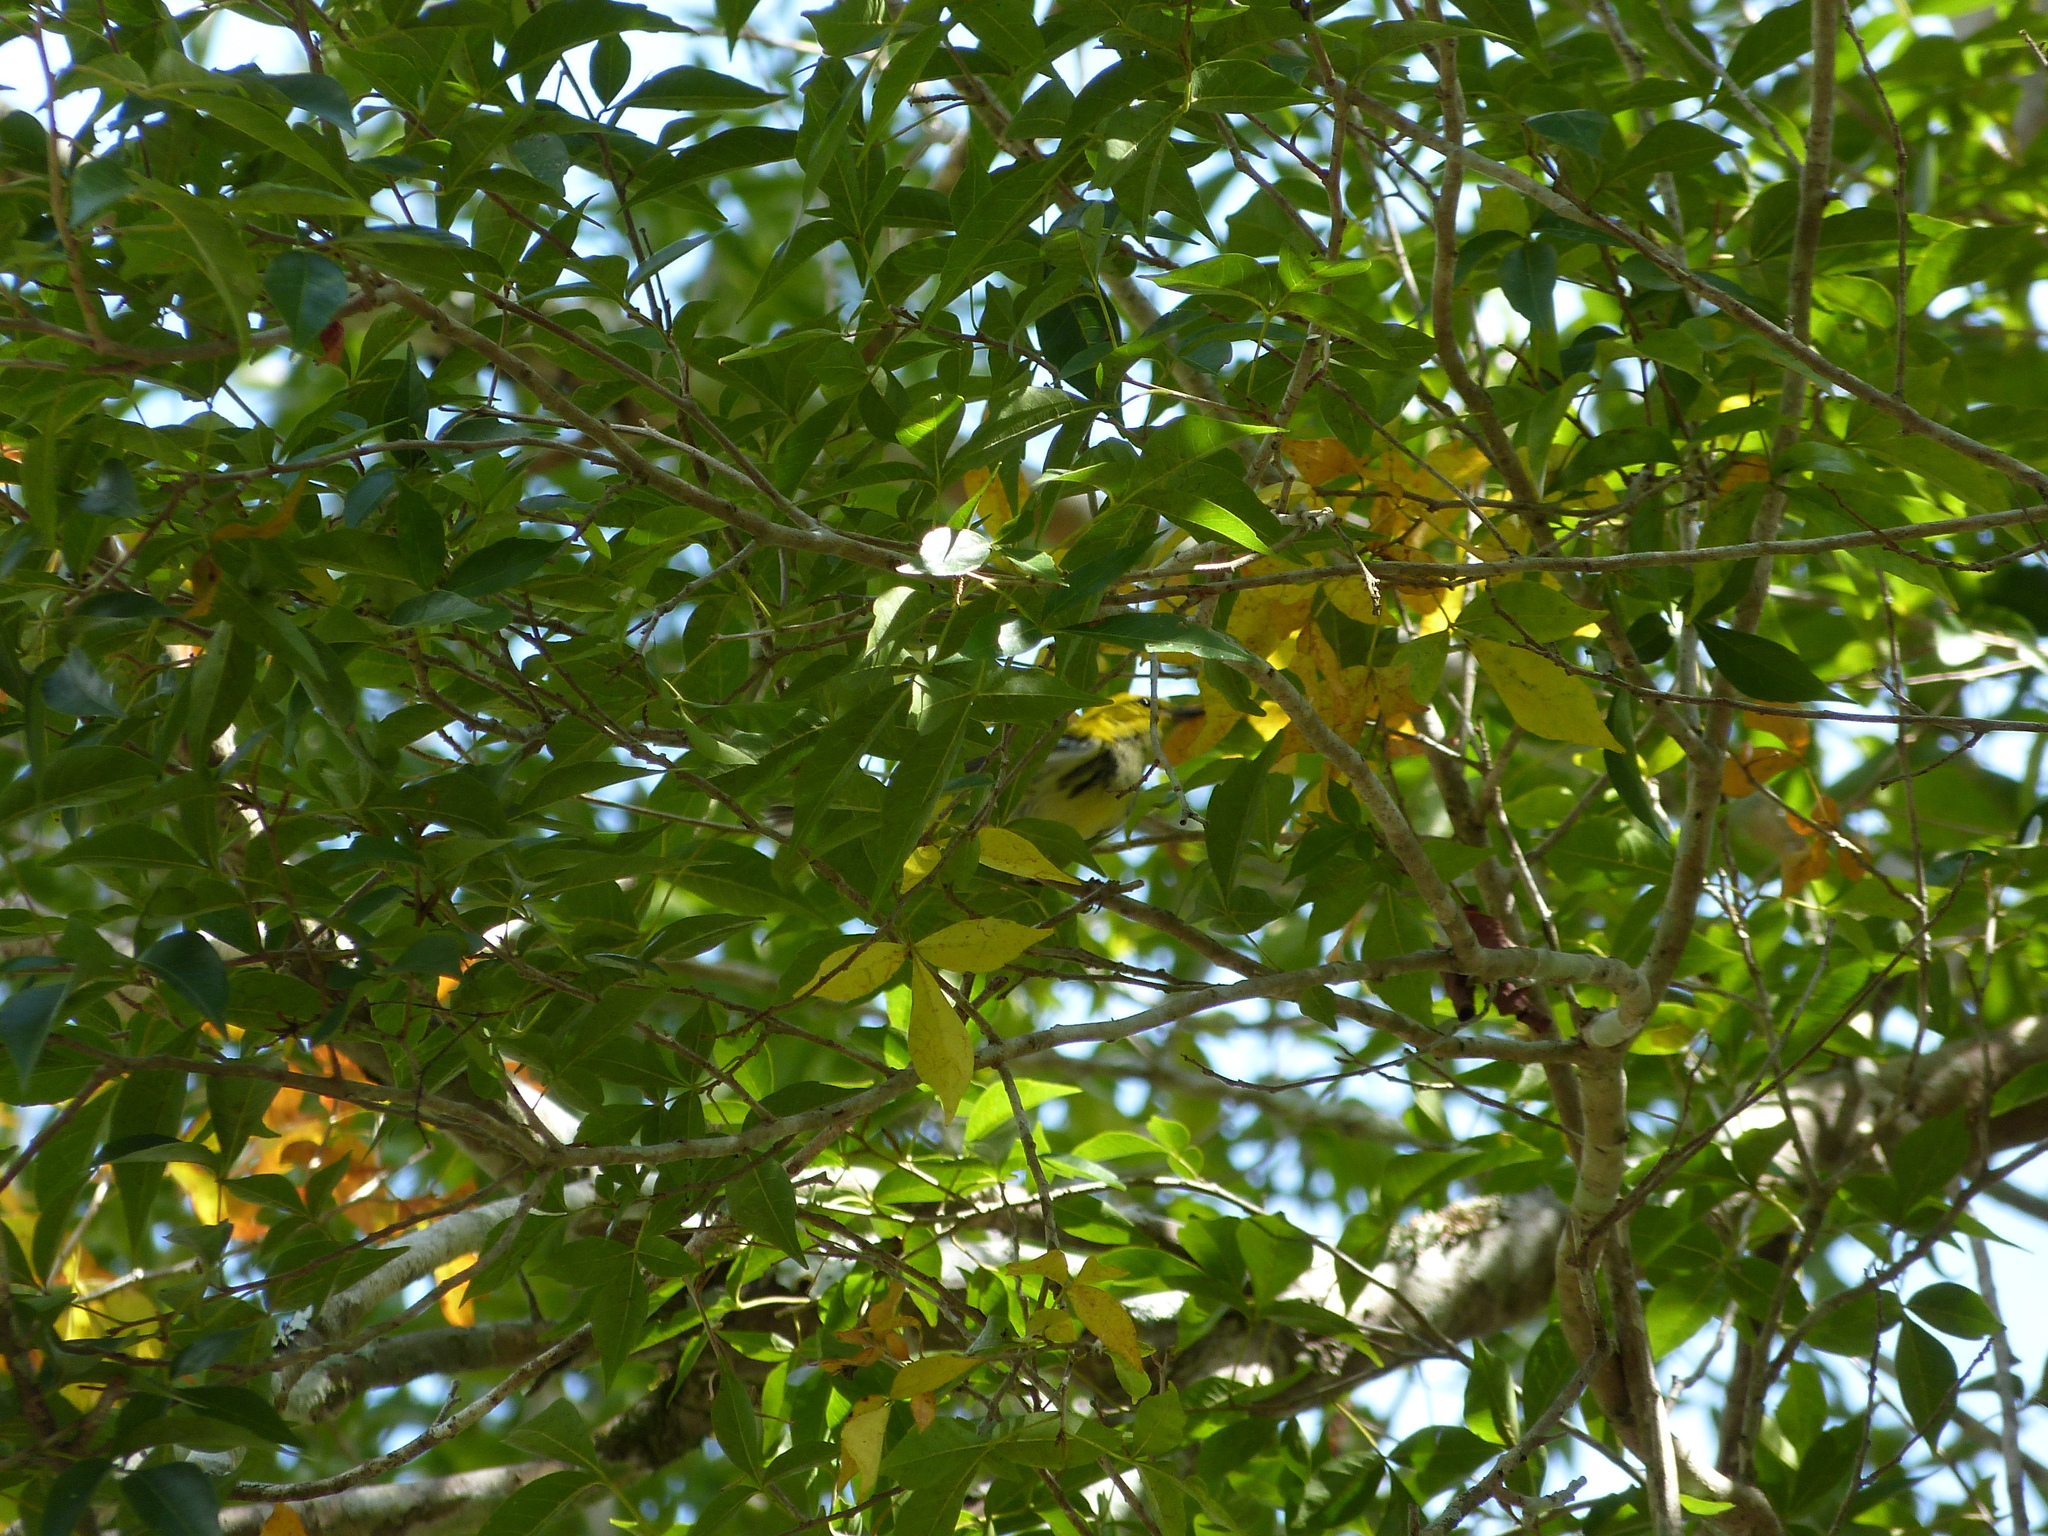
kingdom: Animalia
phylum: Chordata
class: Aves
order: Passeriformes
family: Parulidae
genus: Setophaga
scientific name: Setophaga virens
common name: Black-throated green warbler
